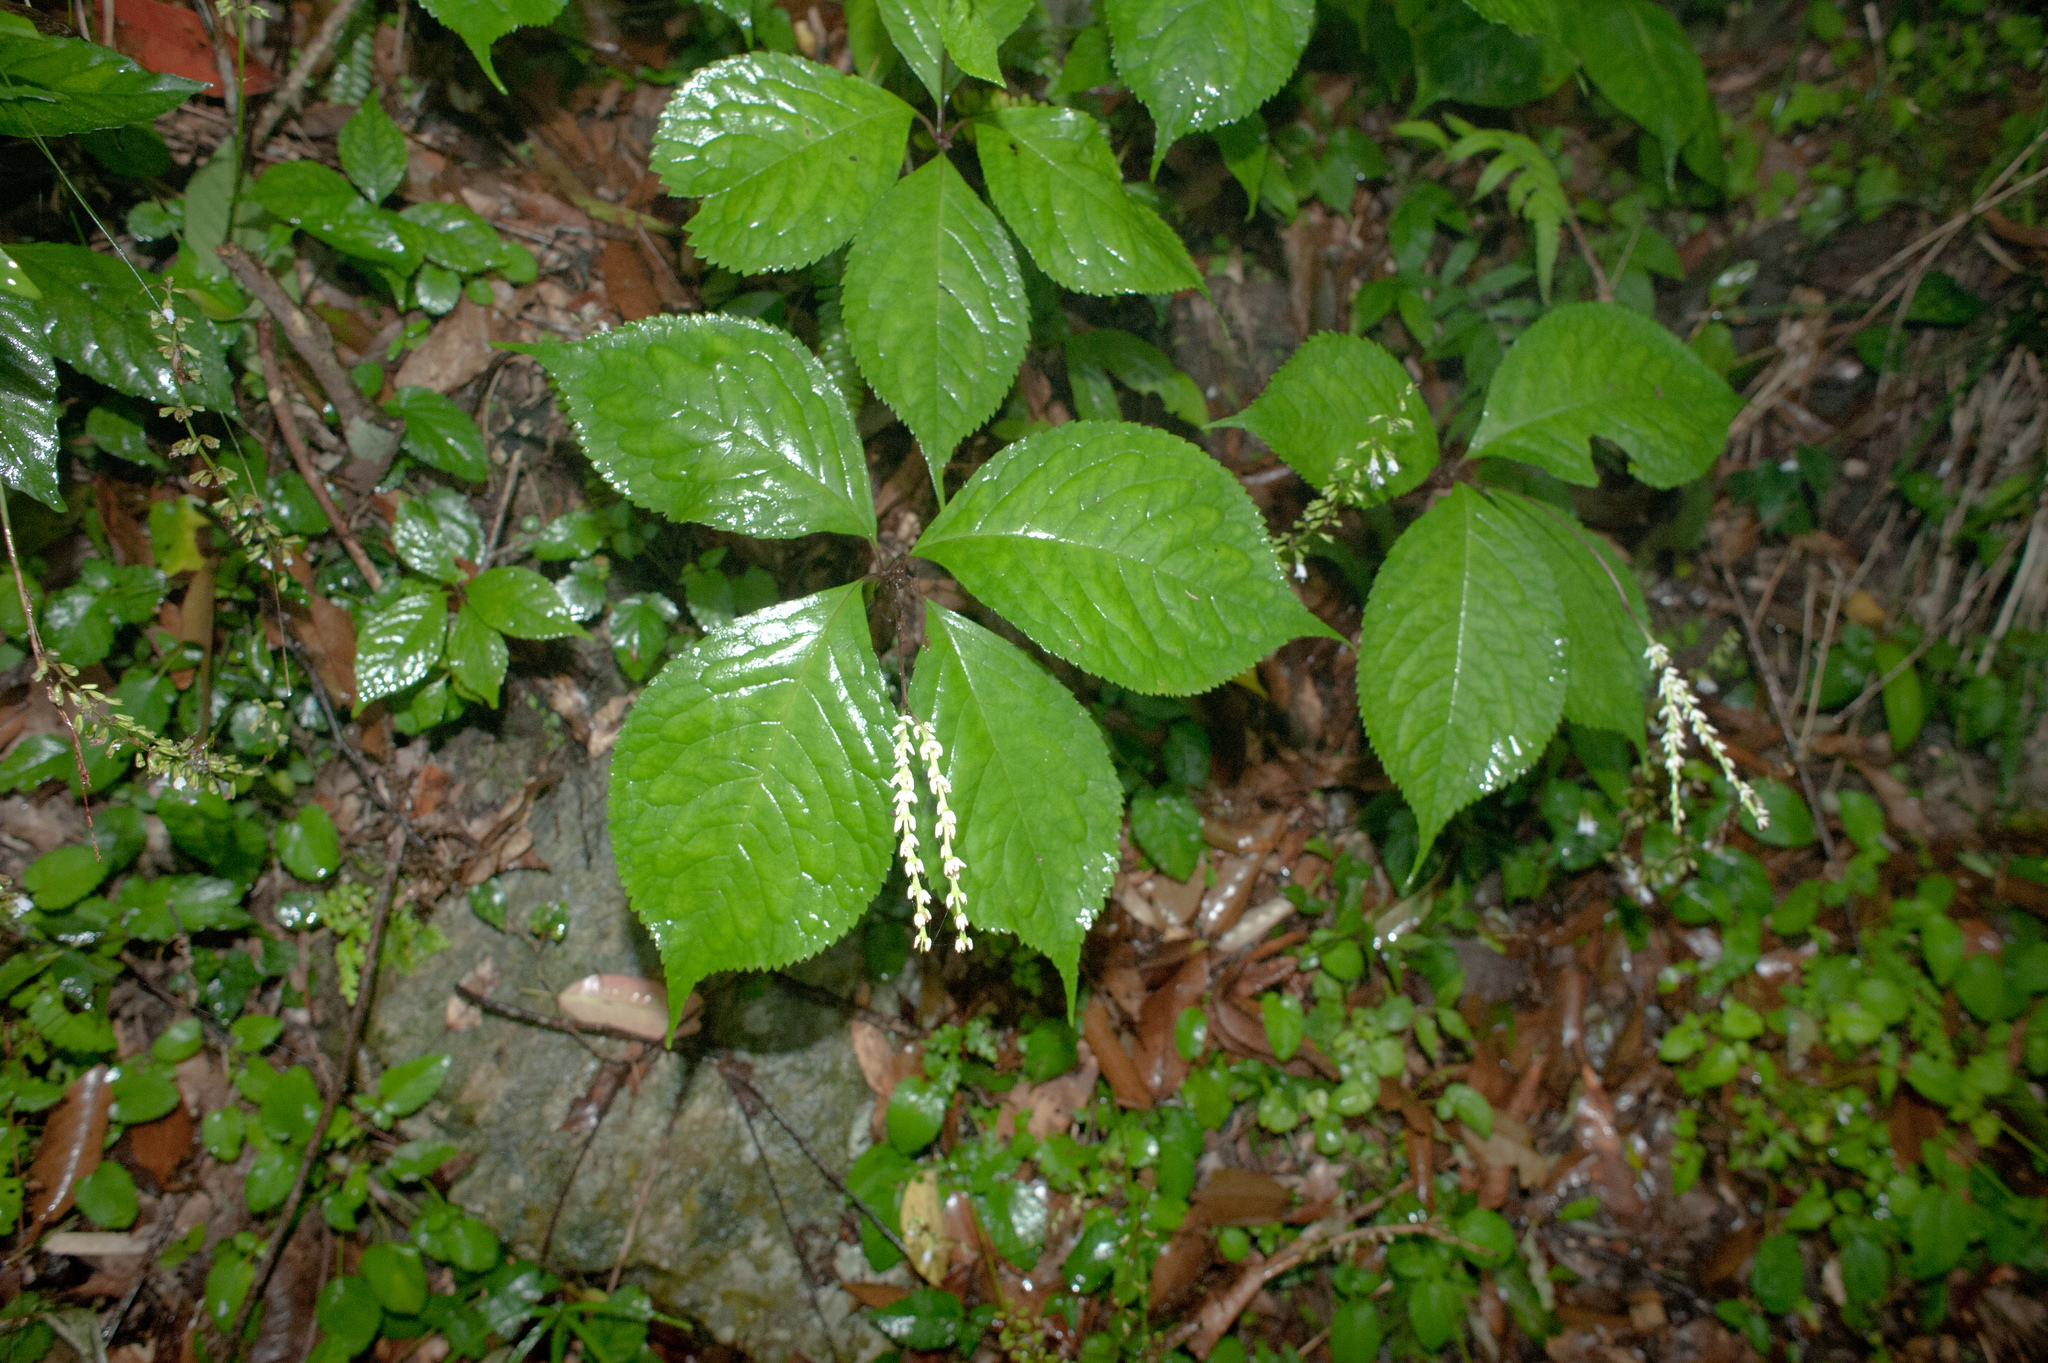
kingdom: Plantae
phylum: Tracheophyta
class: Magnoliopsida
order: Chloranthales
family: Chloranthaceae
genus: Chloranthus
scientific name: Chloranthus oldhamii
